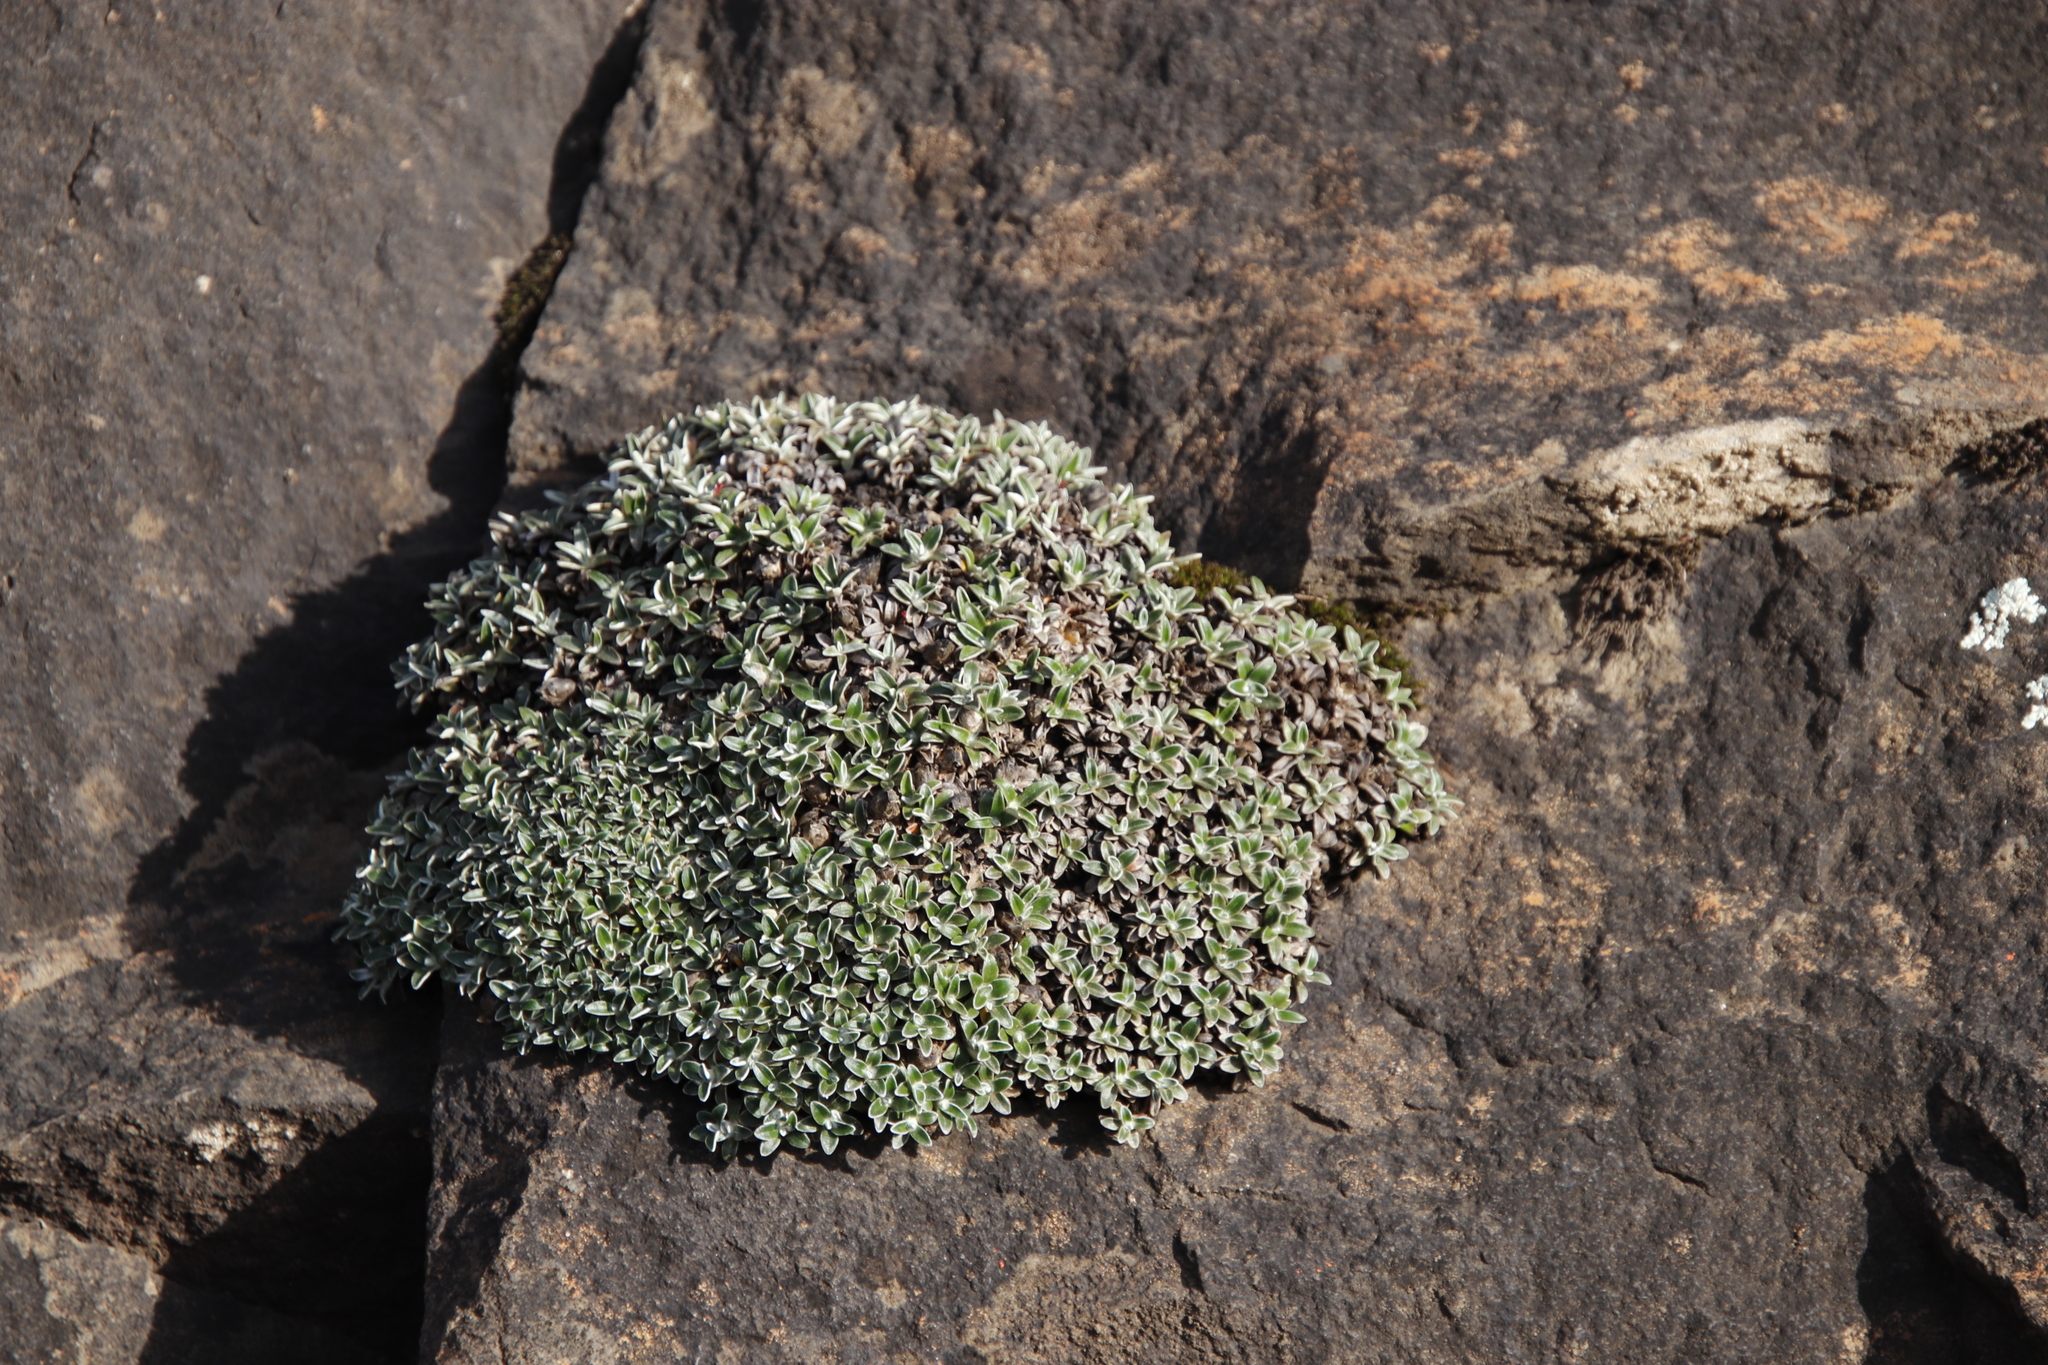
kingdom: Plantae
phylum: Tracheophyta
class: Magnoliopsida
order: Asterales
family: Asteraceae
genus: Helichrysum
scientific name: Helichrysum sessilioides
